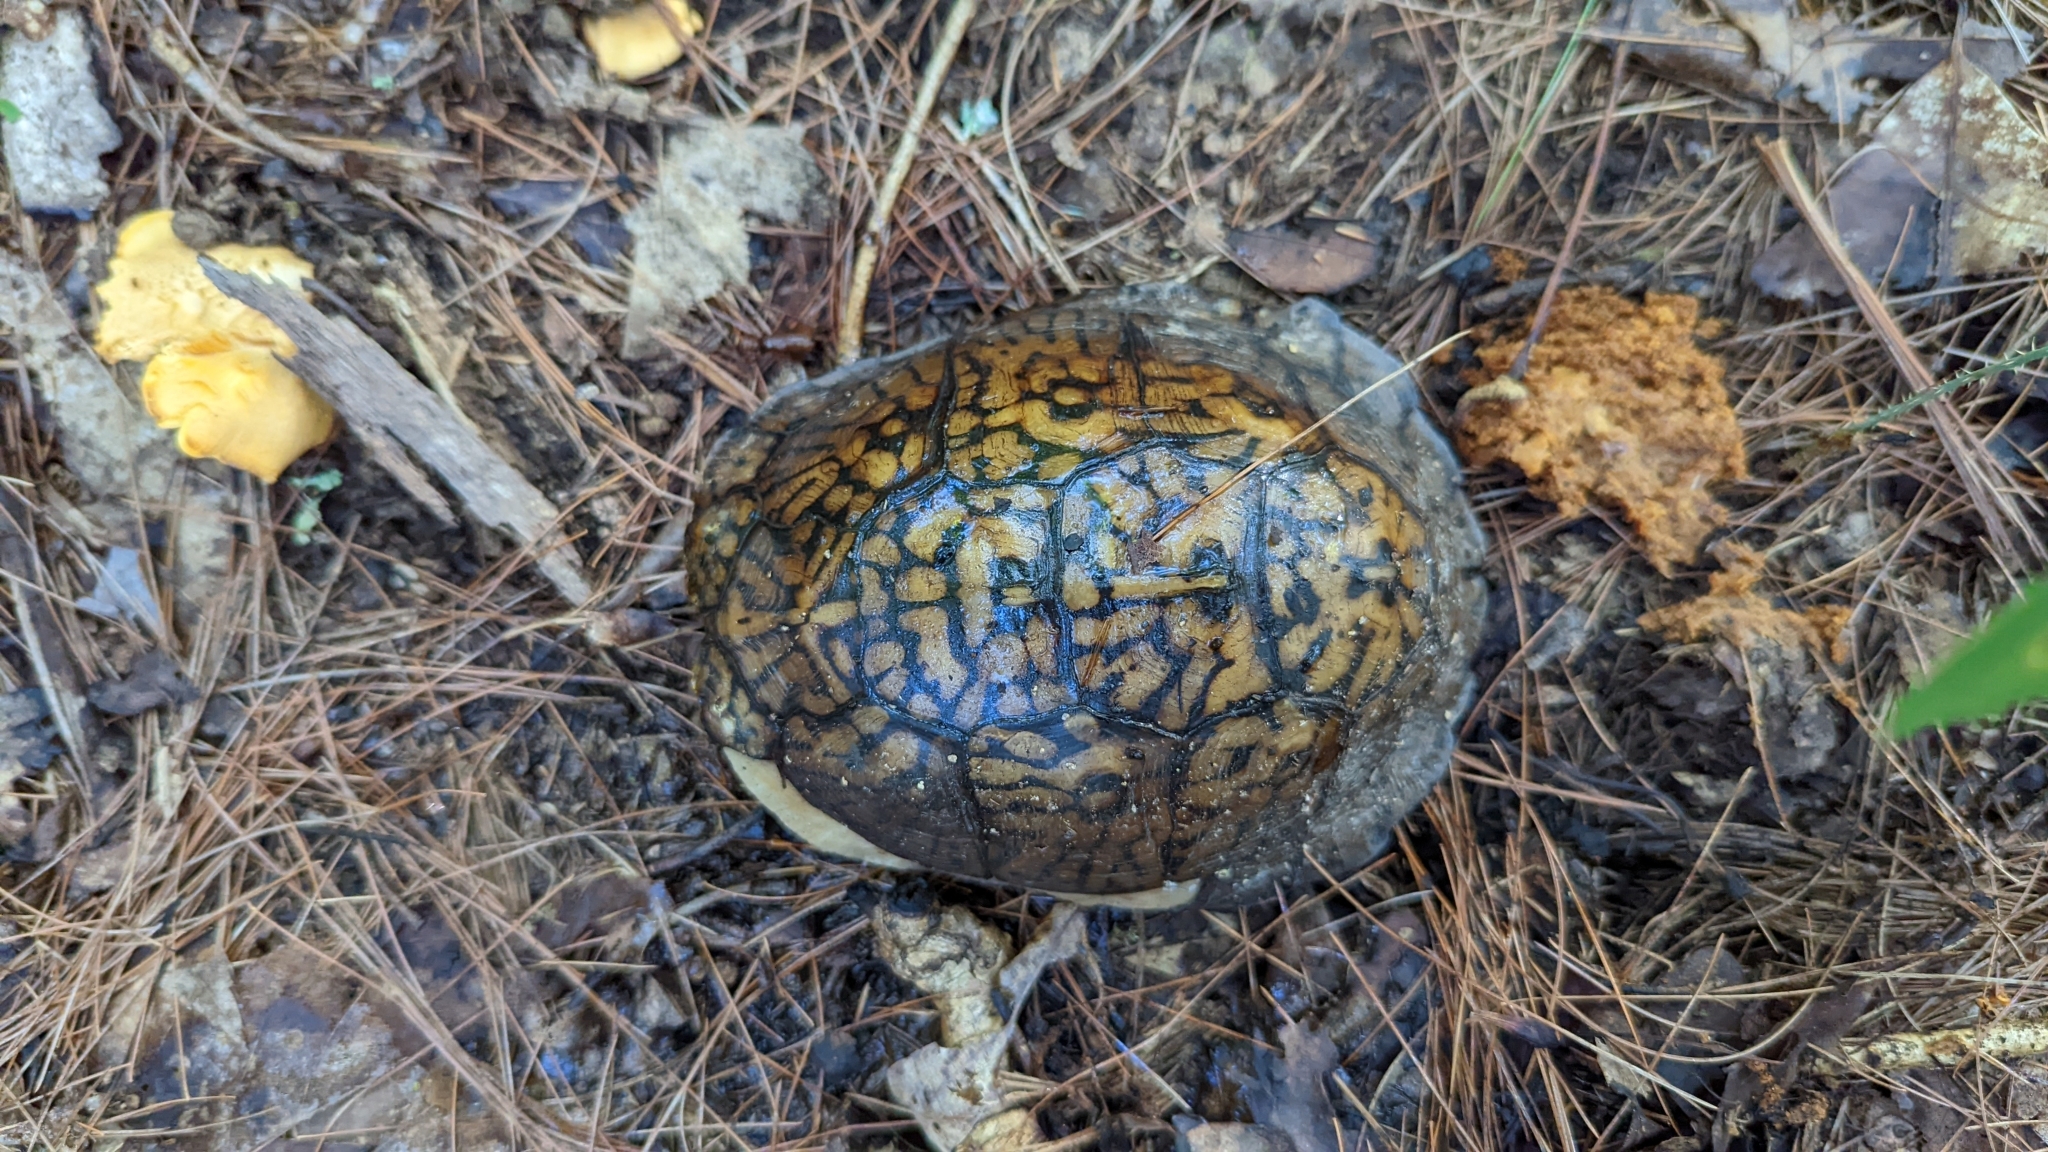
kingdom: Animalia
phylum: Chordata
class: Testudines
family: Emydidae
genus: Terrapene
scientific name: Terrapene carolina
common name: Common box turtle
